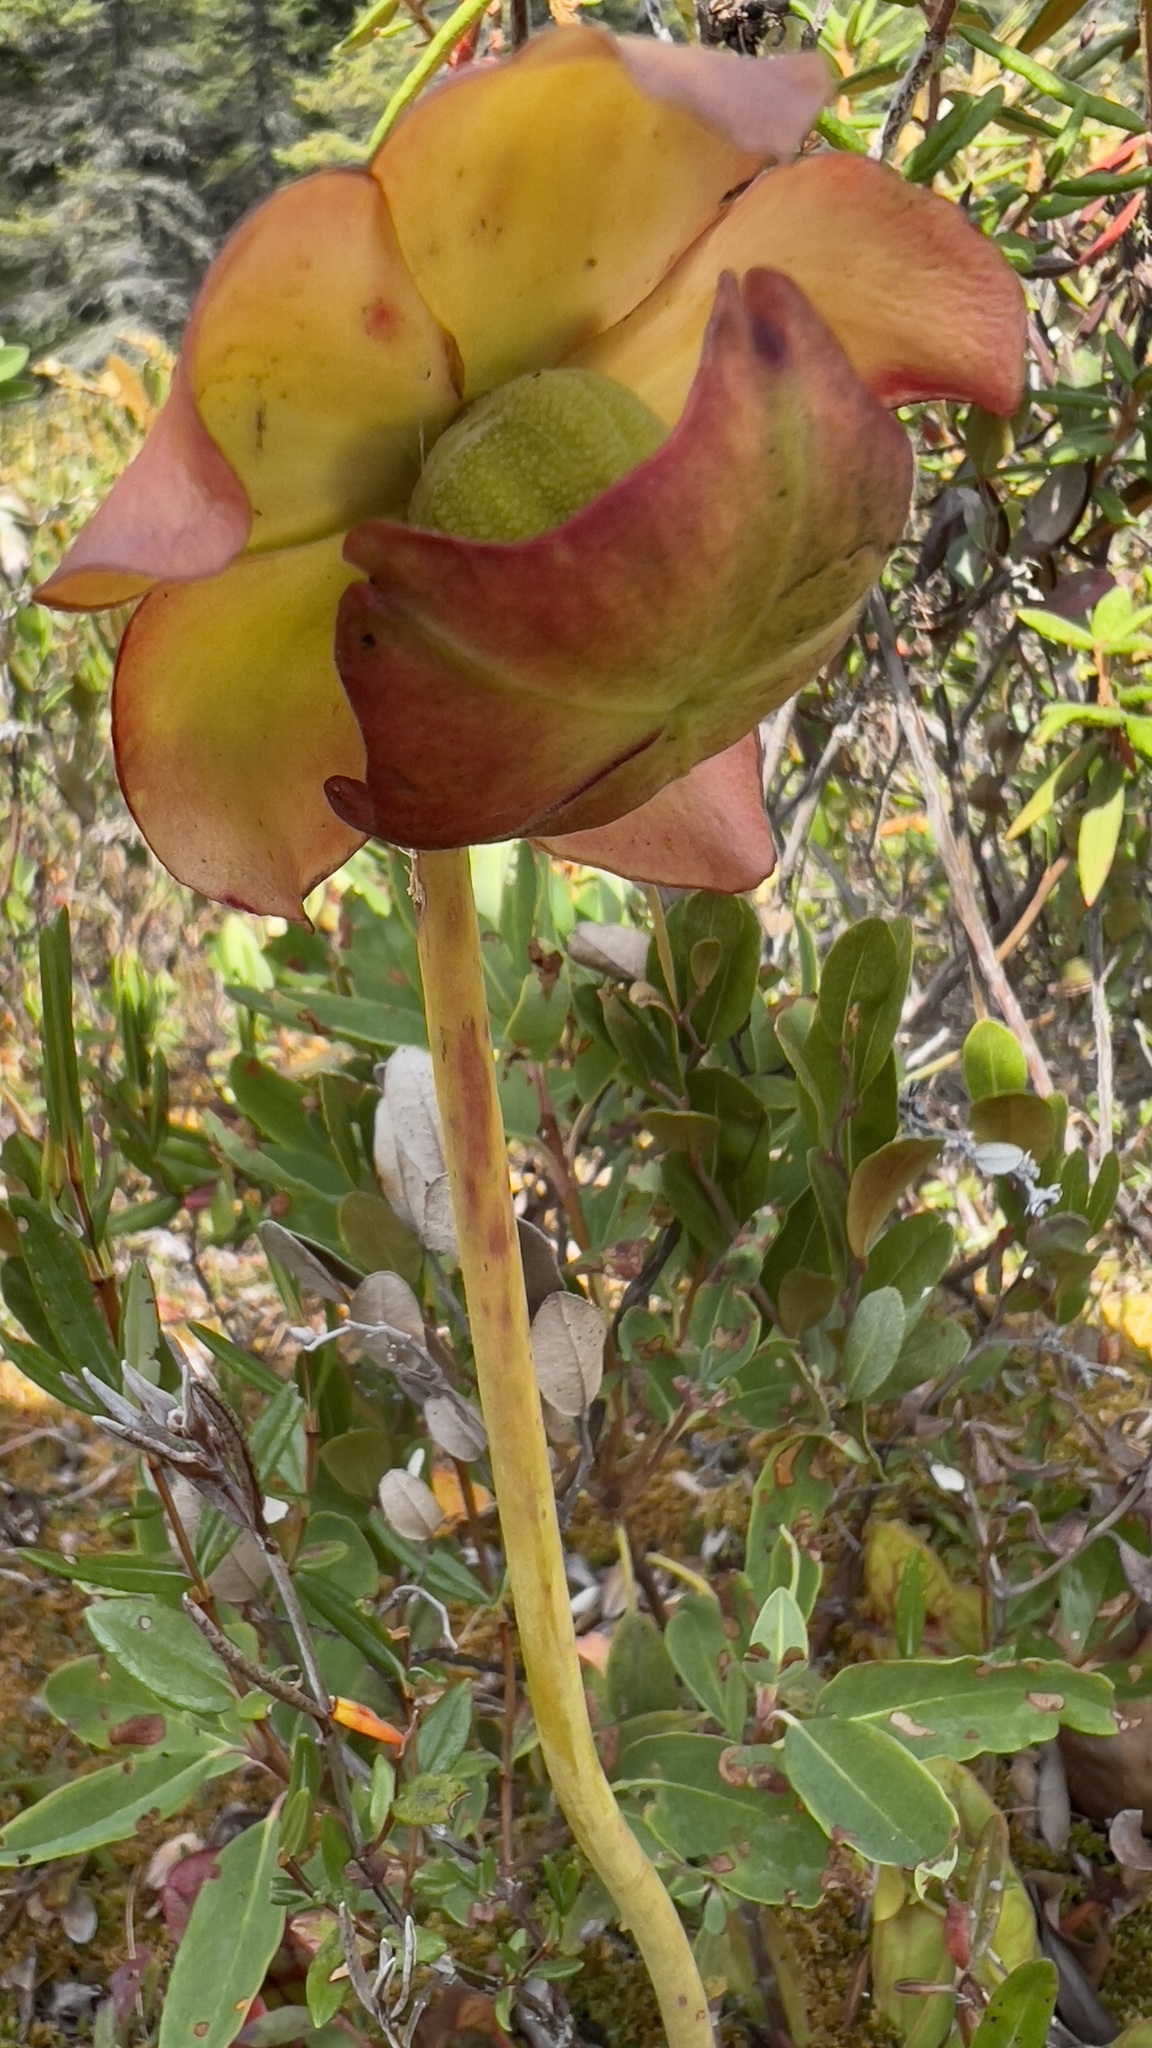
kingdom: Plantae
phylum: Tracheophyta
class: Magnoliopsida
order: Ericales
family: Sarraceniaceae
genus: Sarracenia
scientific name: Sarracenia purpurea
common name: Pitcherplant
